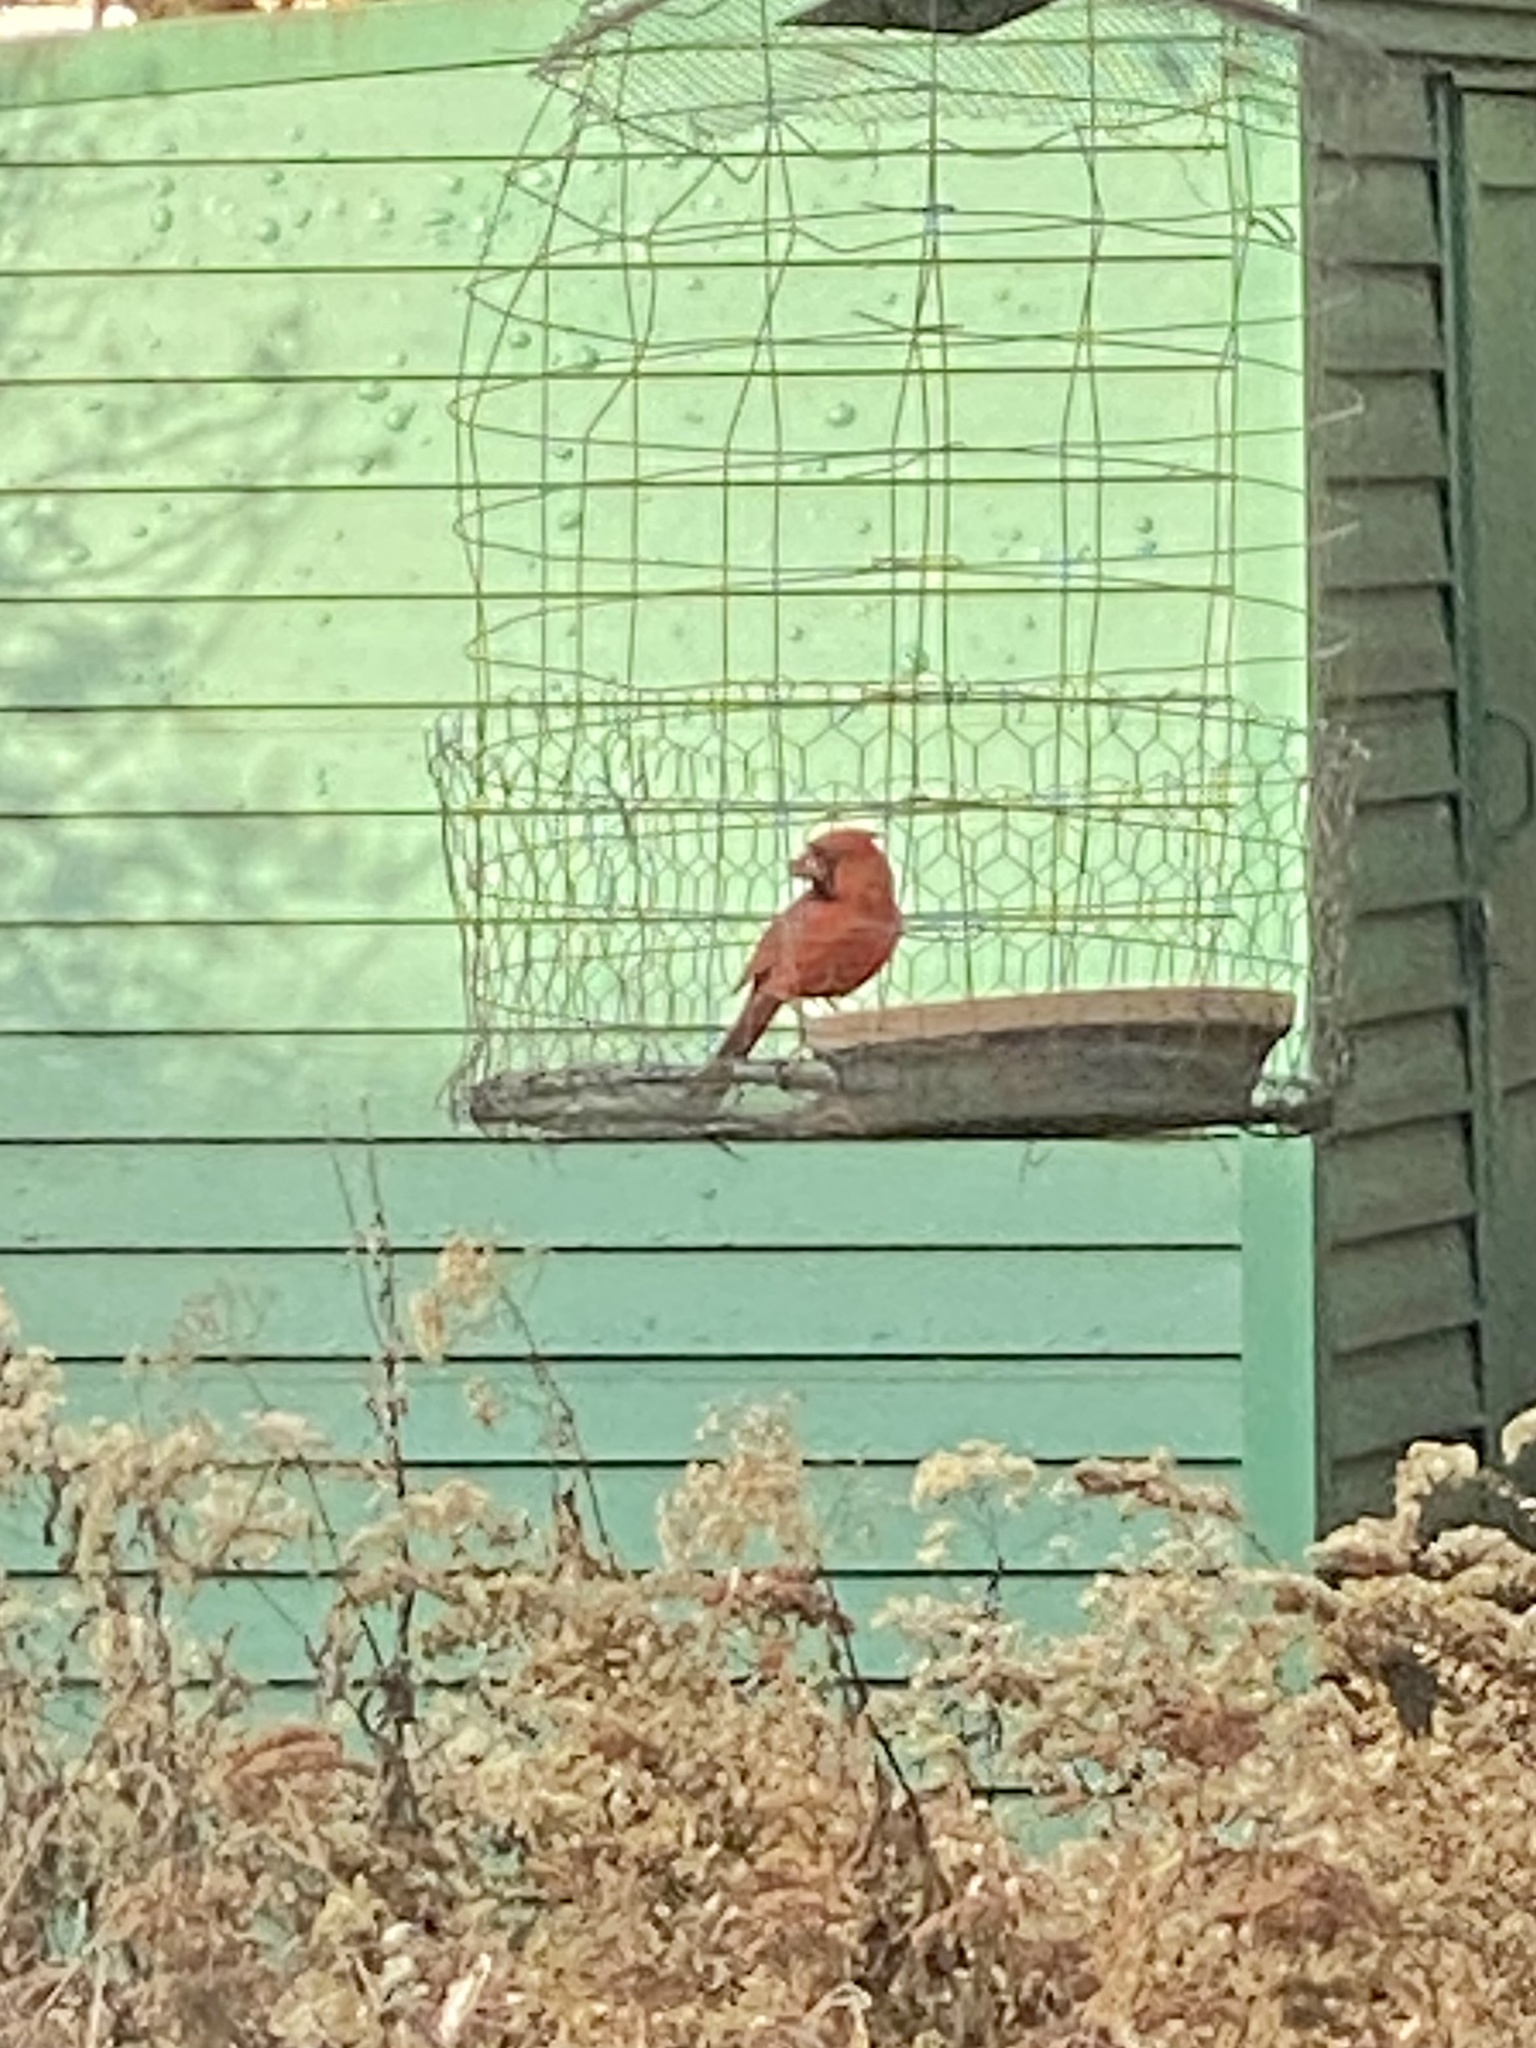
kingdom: Animalia
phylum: Chordata
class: Aves
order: Passeriformes
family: Cardinalidae
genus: Cardinalis
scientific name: Cardinalis cardinalis
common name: Northern cardinal
